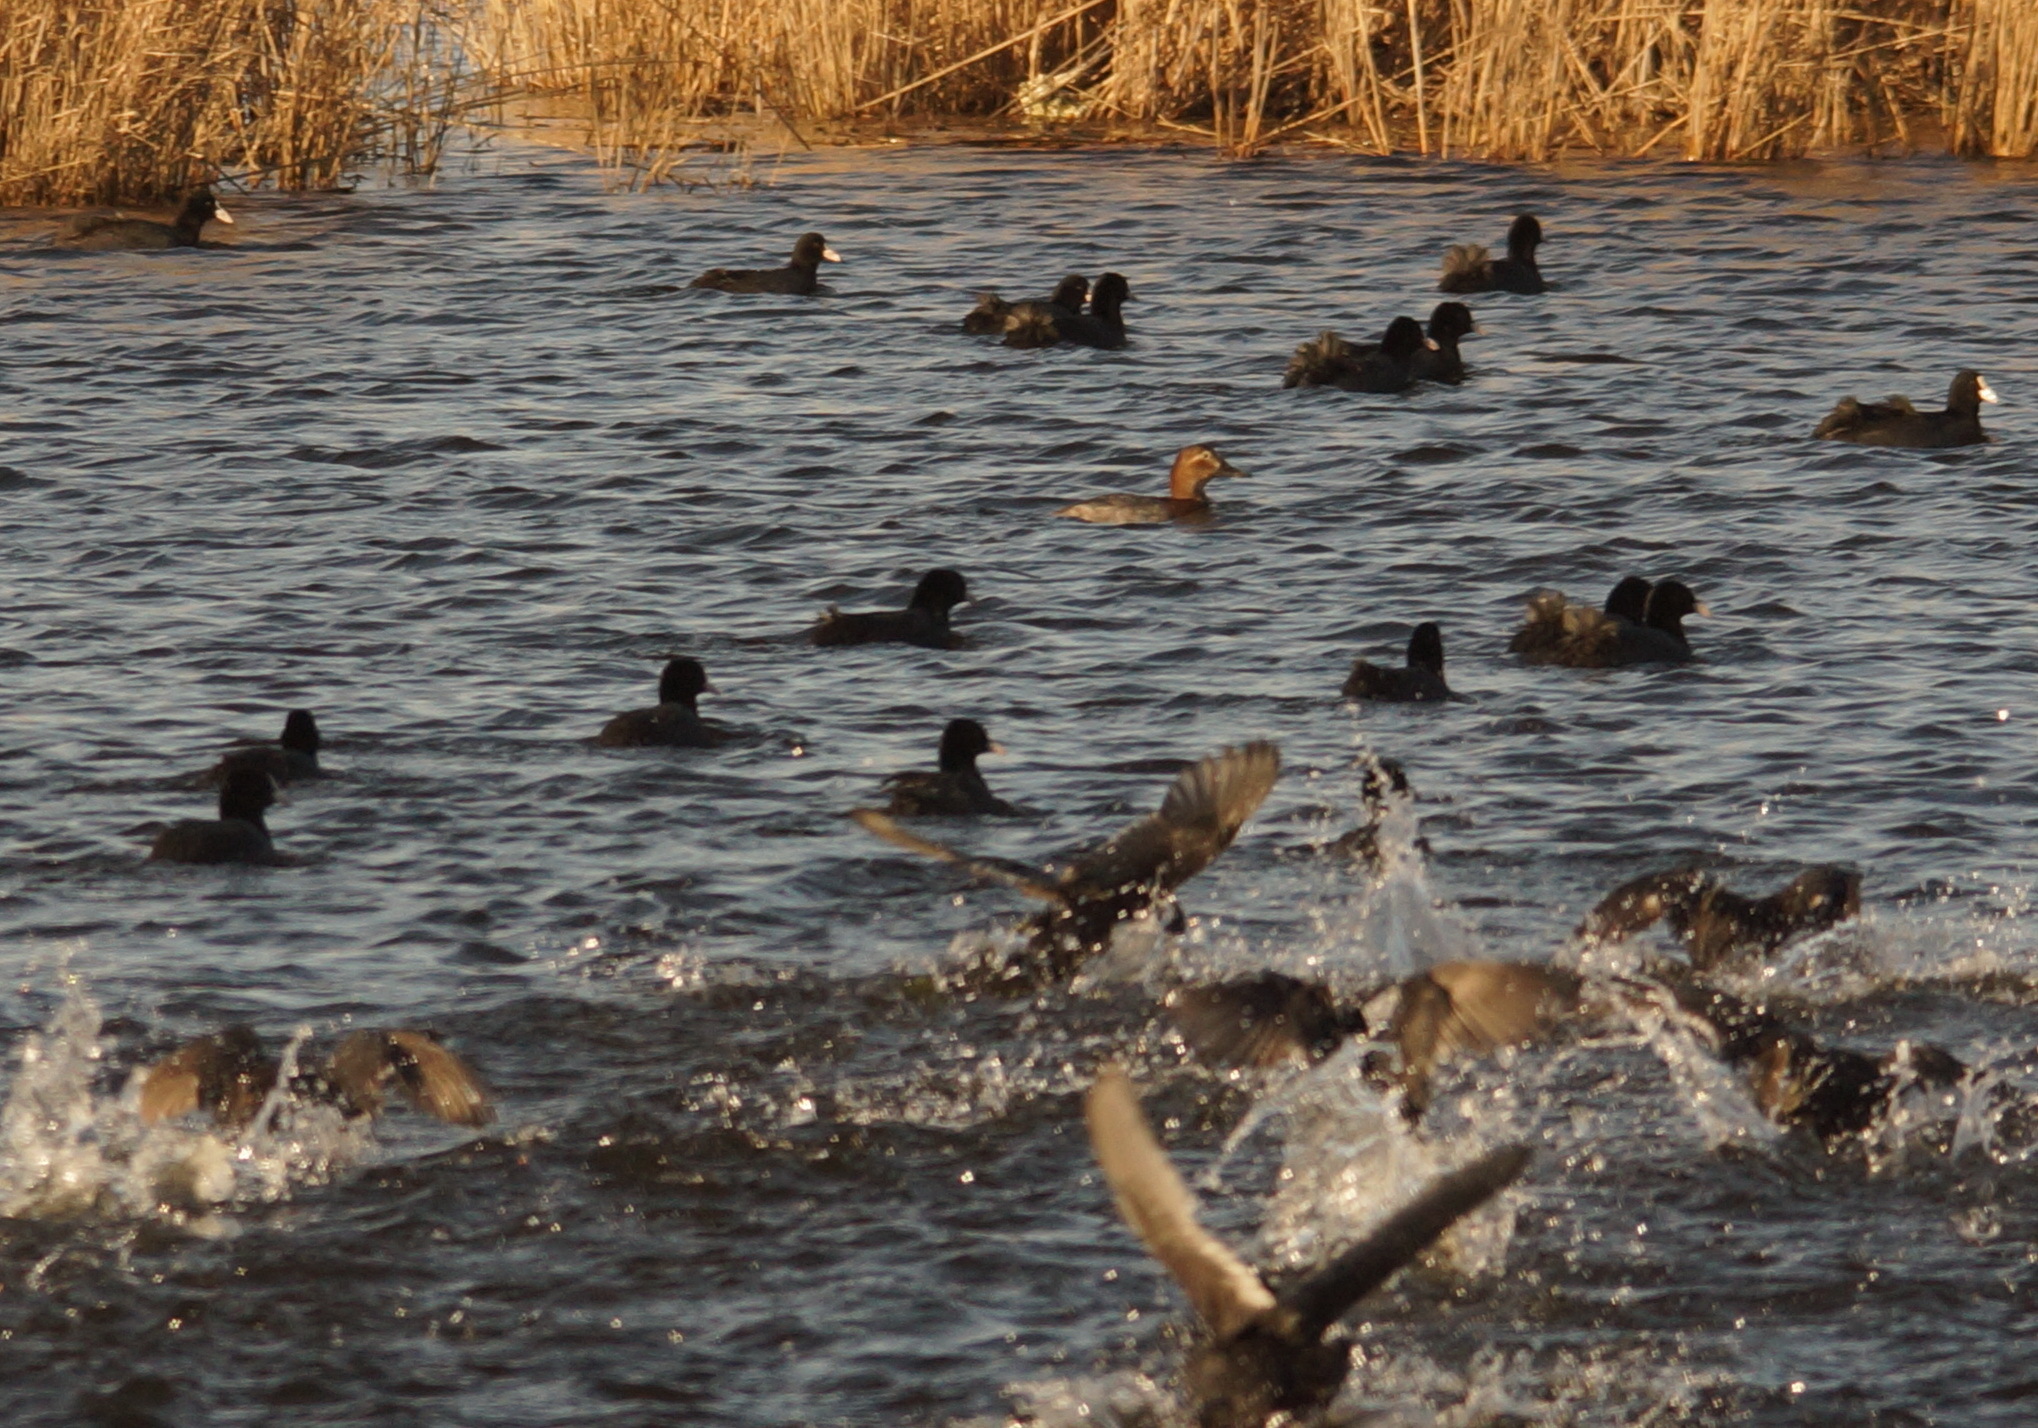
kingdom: Animalia
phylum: Chordata
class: Aves
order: Gruiformes
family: Rallidae
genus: Fulica
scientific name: Fulica atra
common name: Eurasian coot
